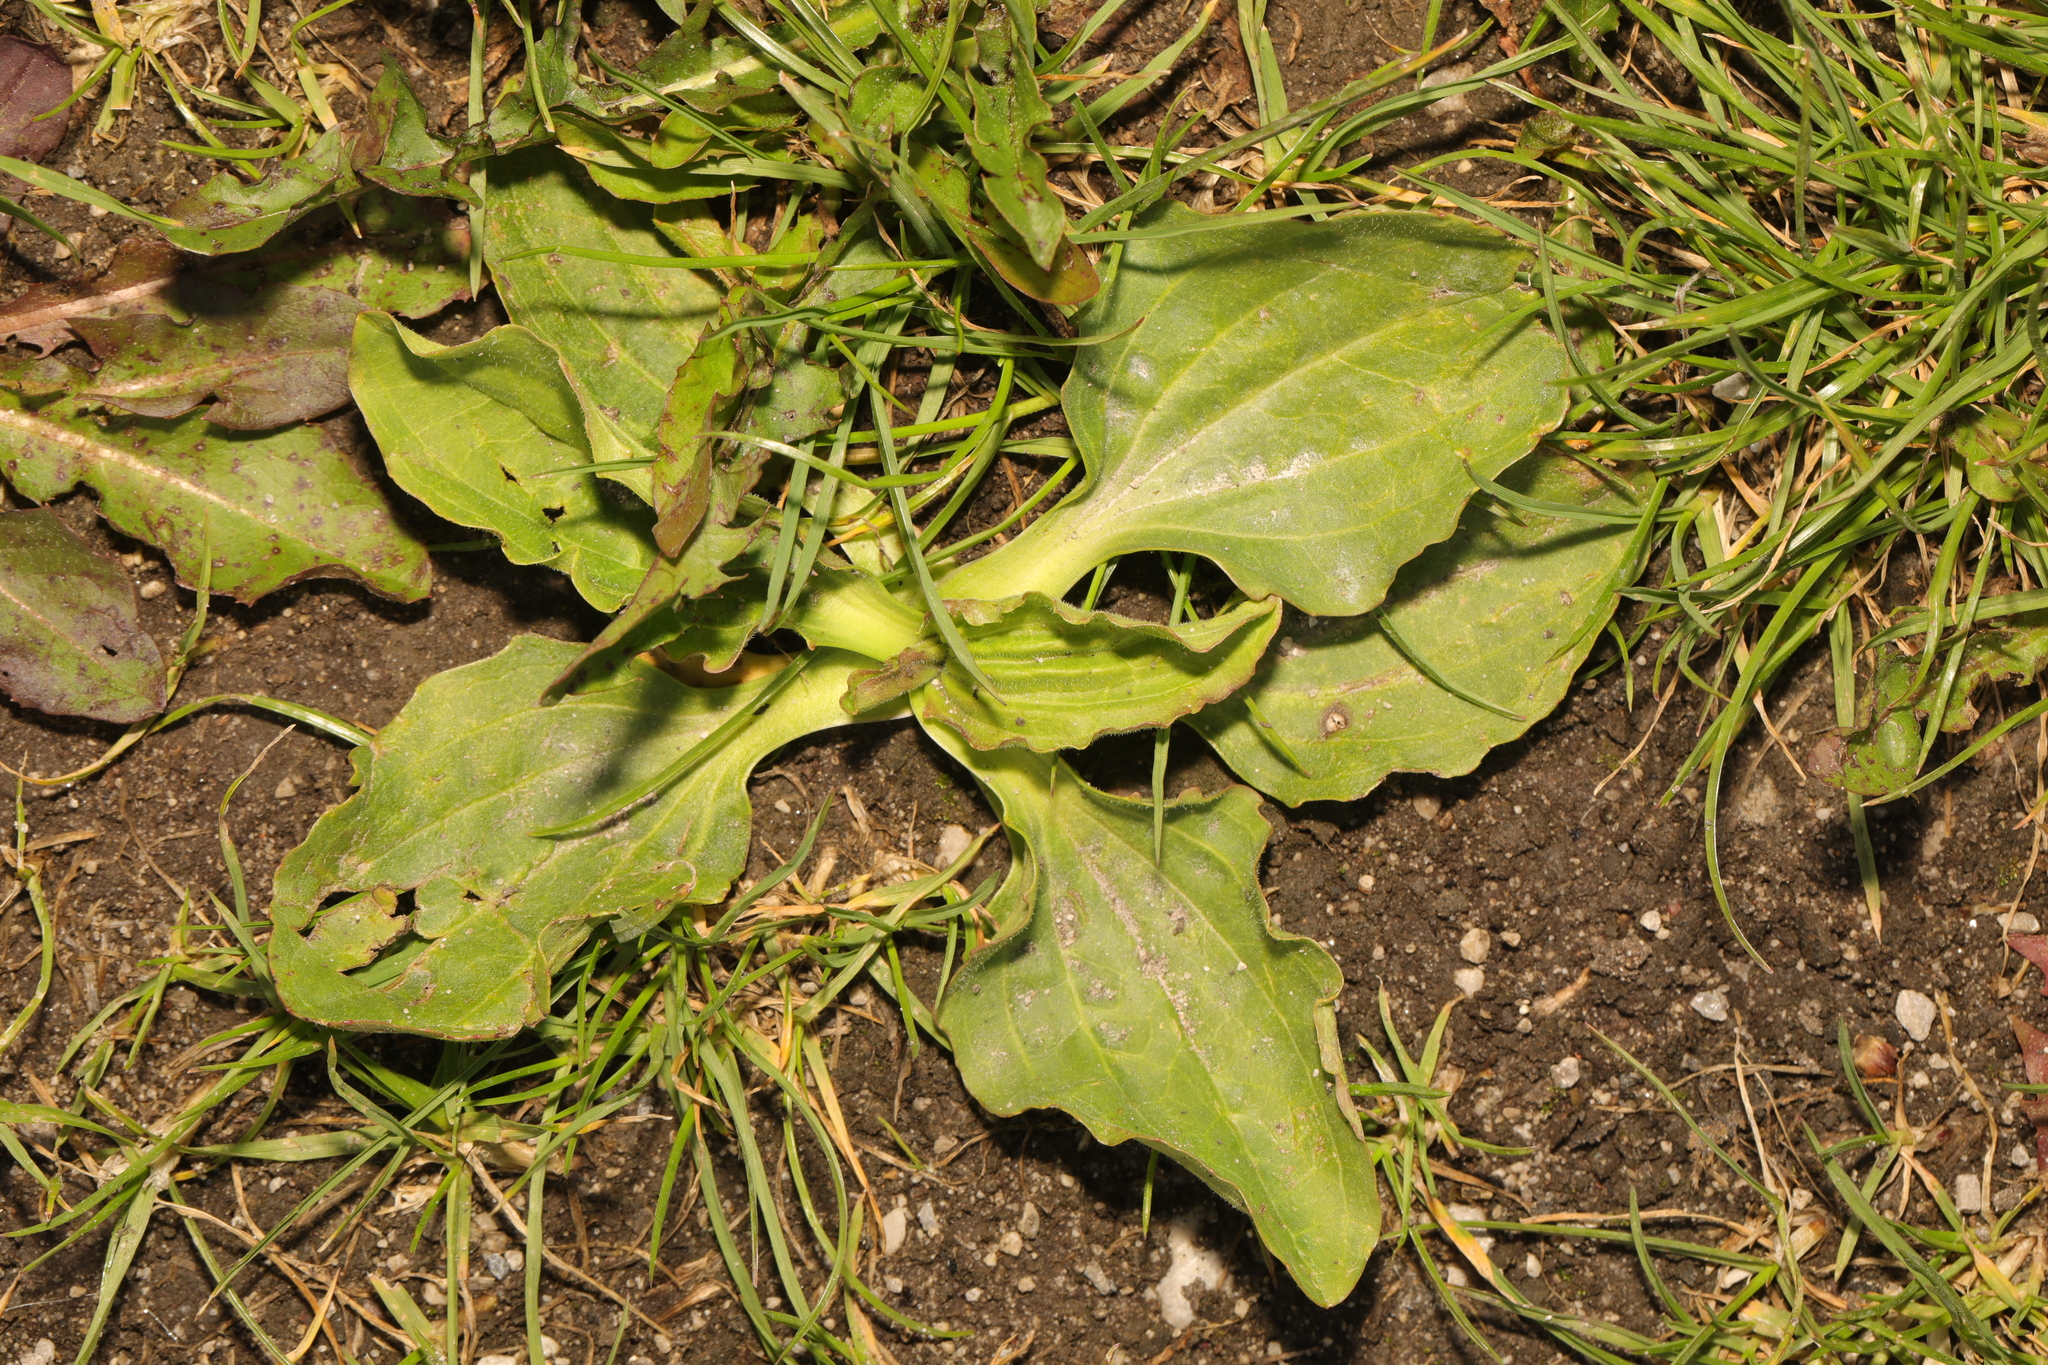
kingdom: Plantae
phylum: Tracheophyta
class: Magnoliopsida
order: Lamiales
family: Plantaginaceae
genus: Plantago
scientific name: Plantago major
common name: Common plantain
